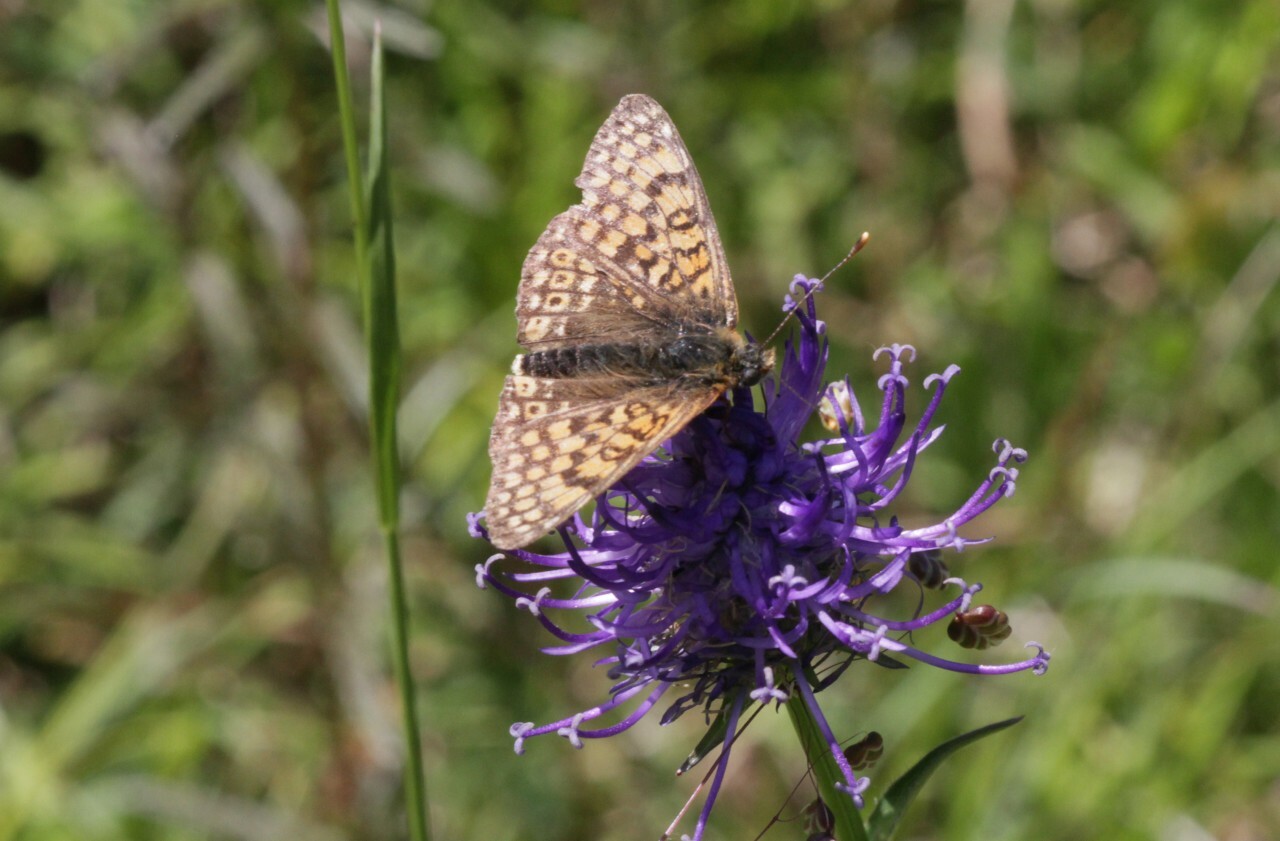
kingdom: Animalia
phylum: Arthropoda
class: Insecta
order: Lepidoptera
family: Nymphalidae
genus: Melitaea
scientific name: Melitaea cinxia
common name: Glanville fritillary
